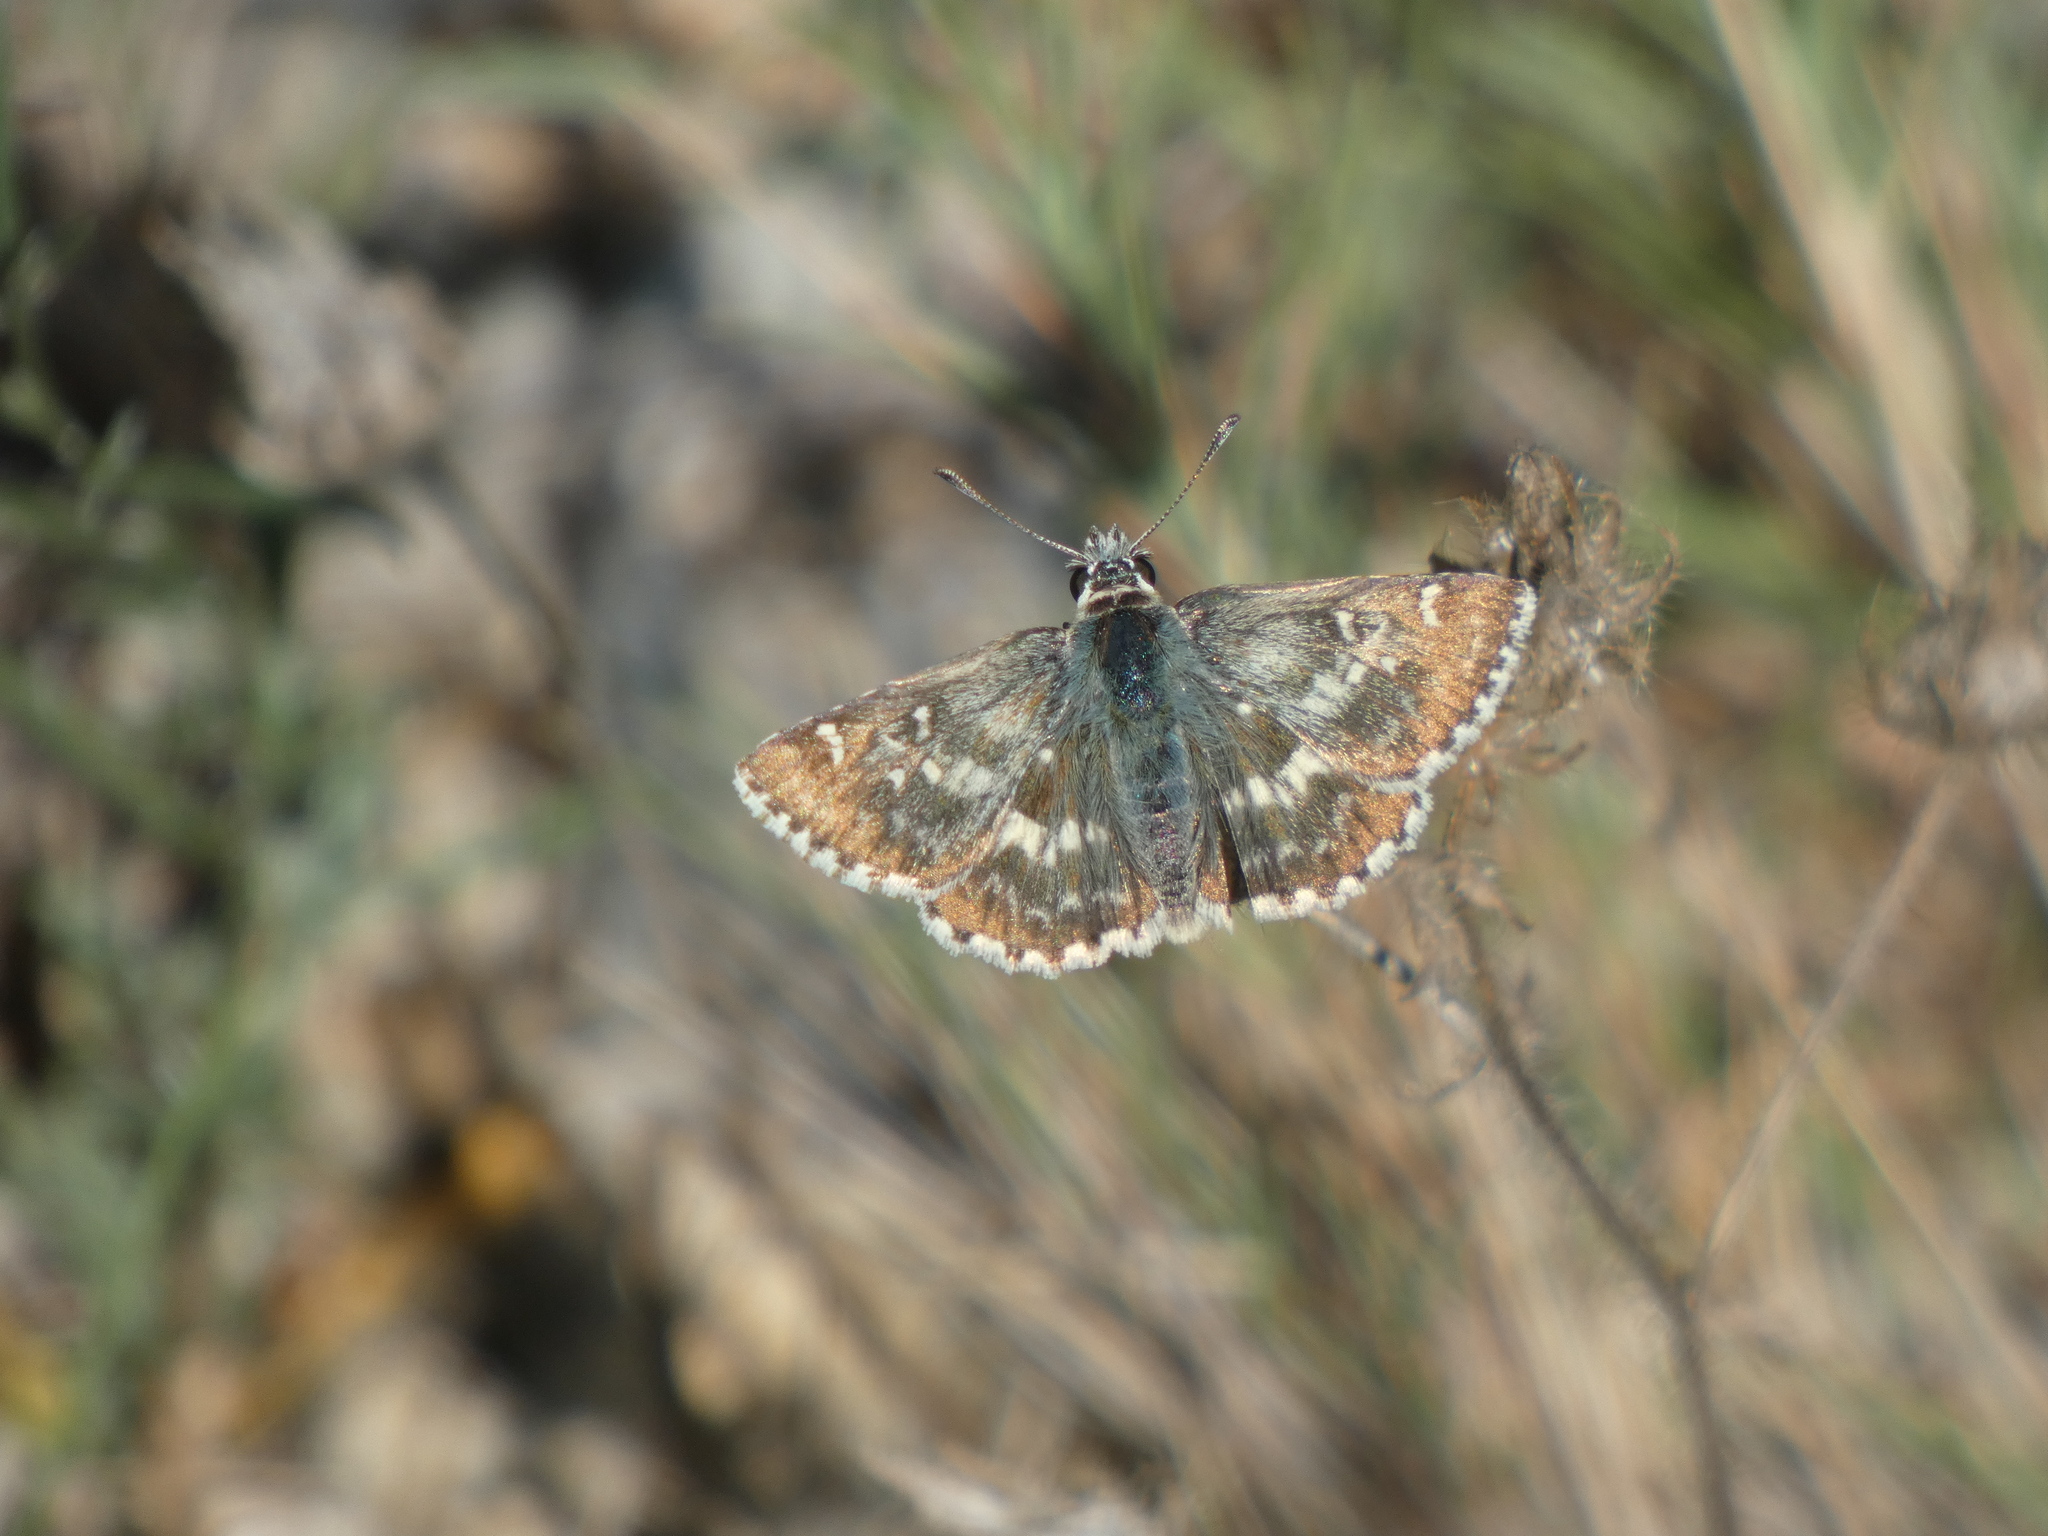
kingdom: Animalia
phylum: Arthropoda
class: Insecta
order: Lepidoptera
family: Hesperiidae
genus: Syrichtus
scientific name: Syrichtus Muschampia proto
